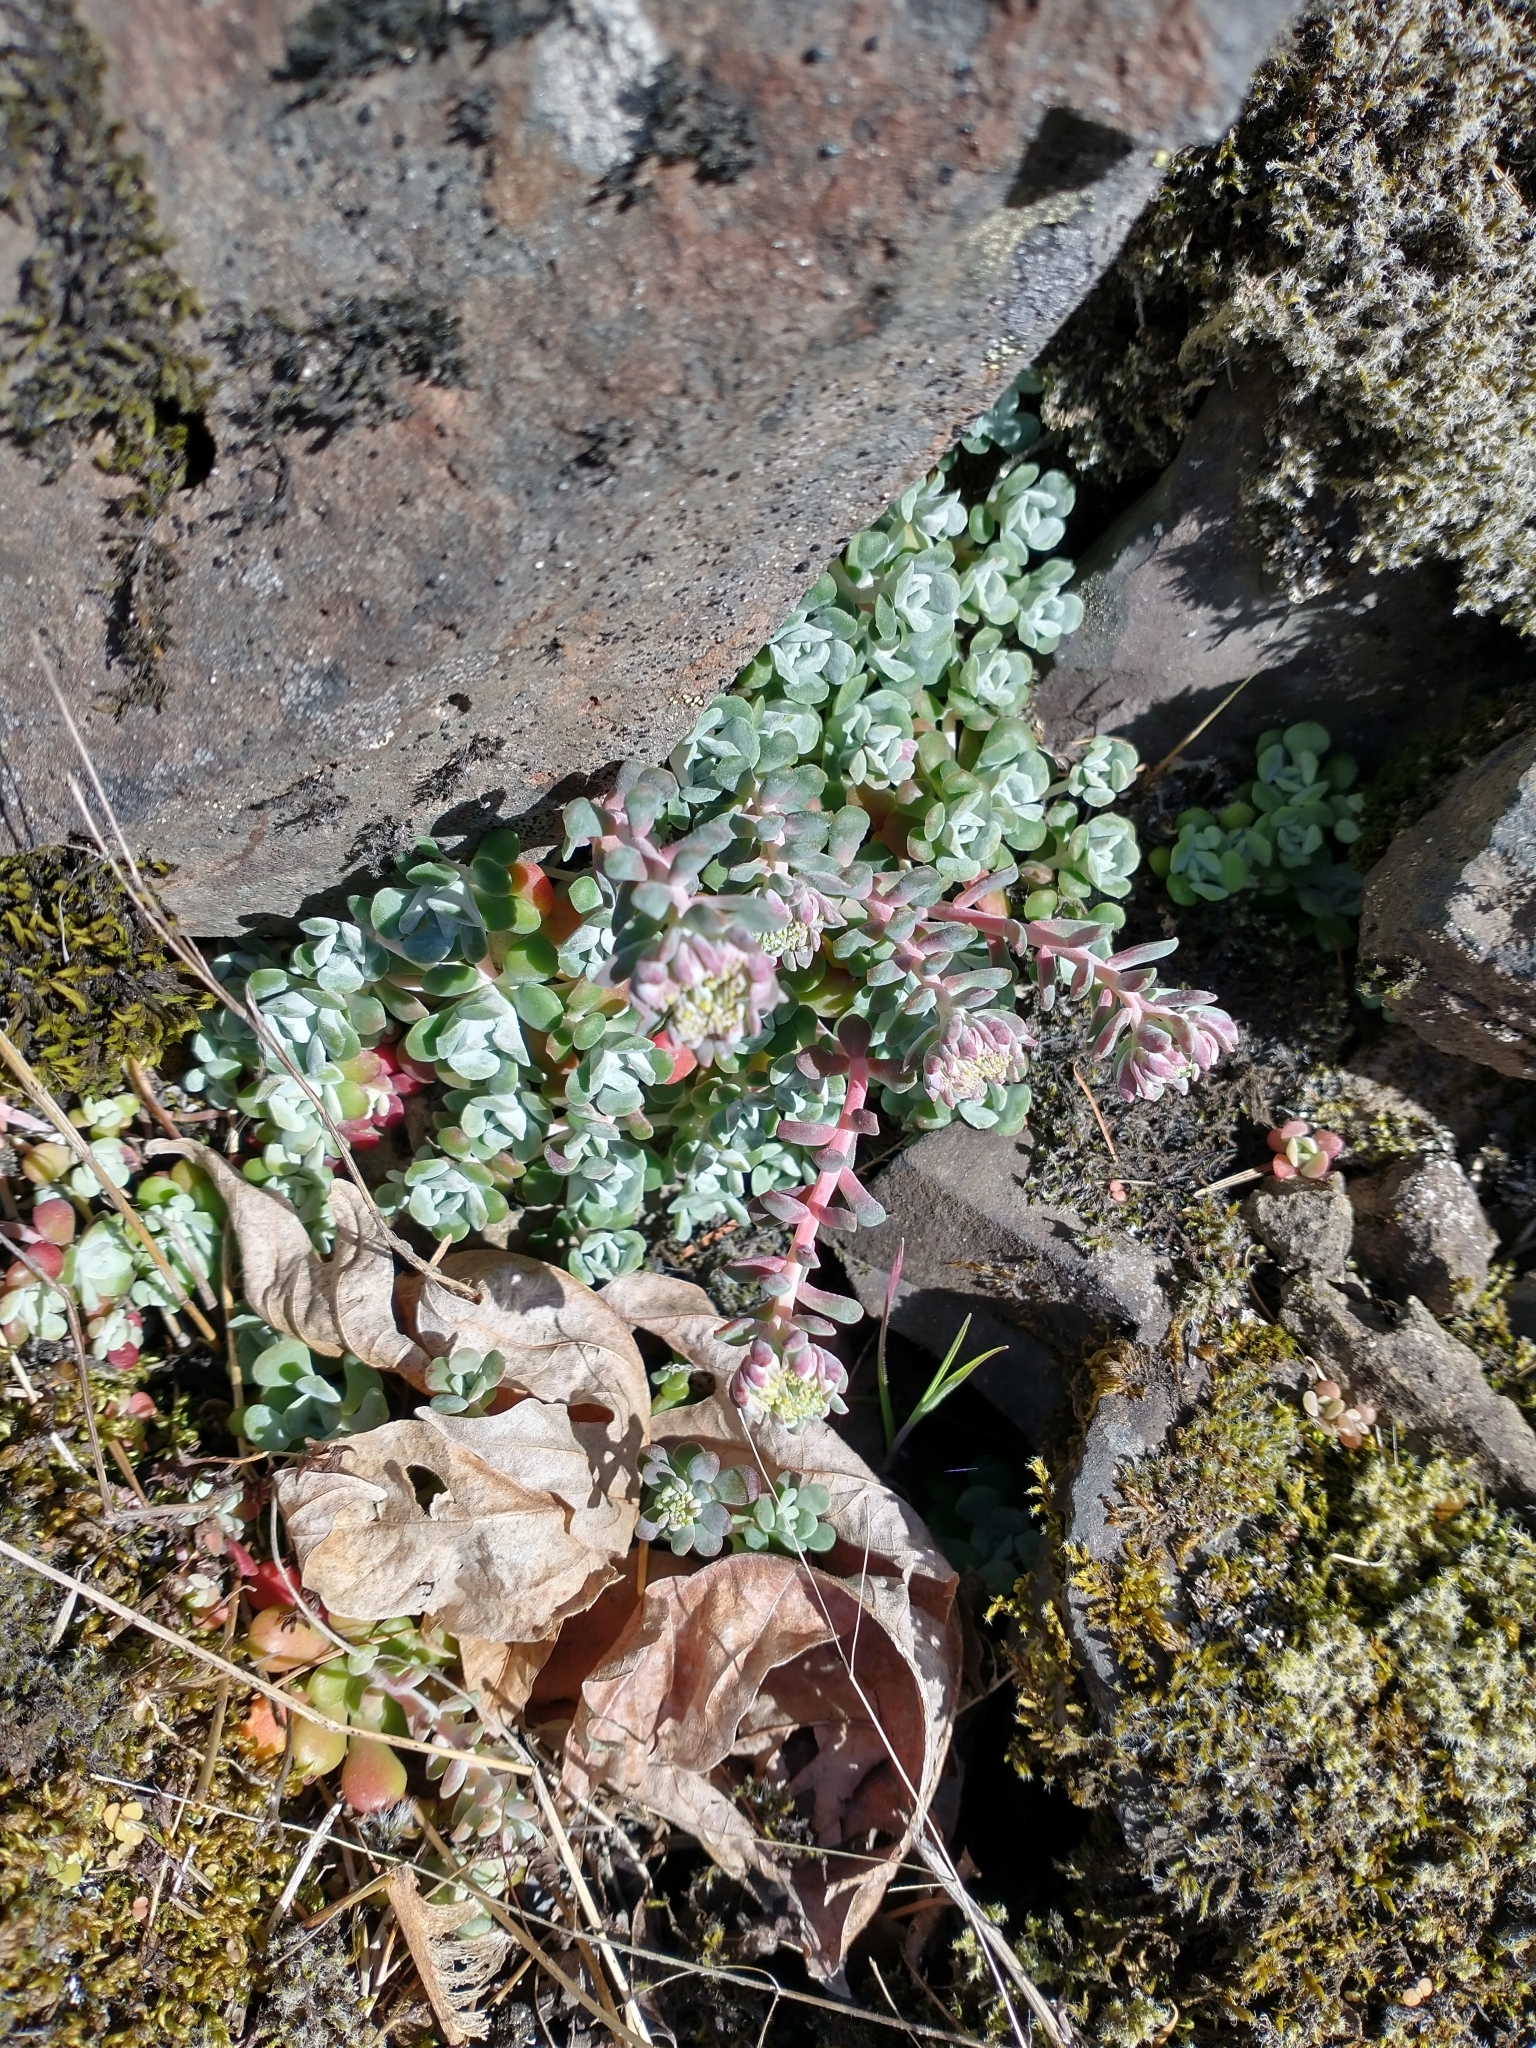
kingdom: Plantae
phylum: Tracheophyta
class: Magnoliopsida
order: Saxifragales
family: Crassulaceae
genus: Sedum
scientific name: Sedum spathulifolium
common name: Colorado stonecrop
